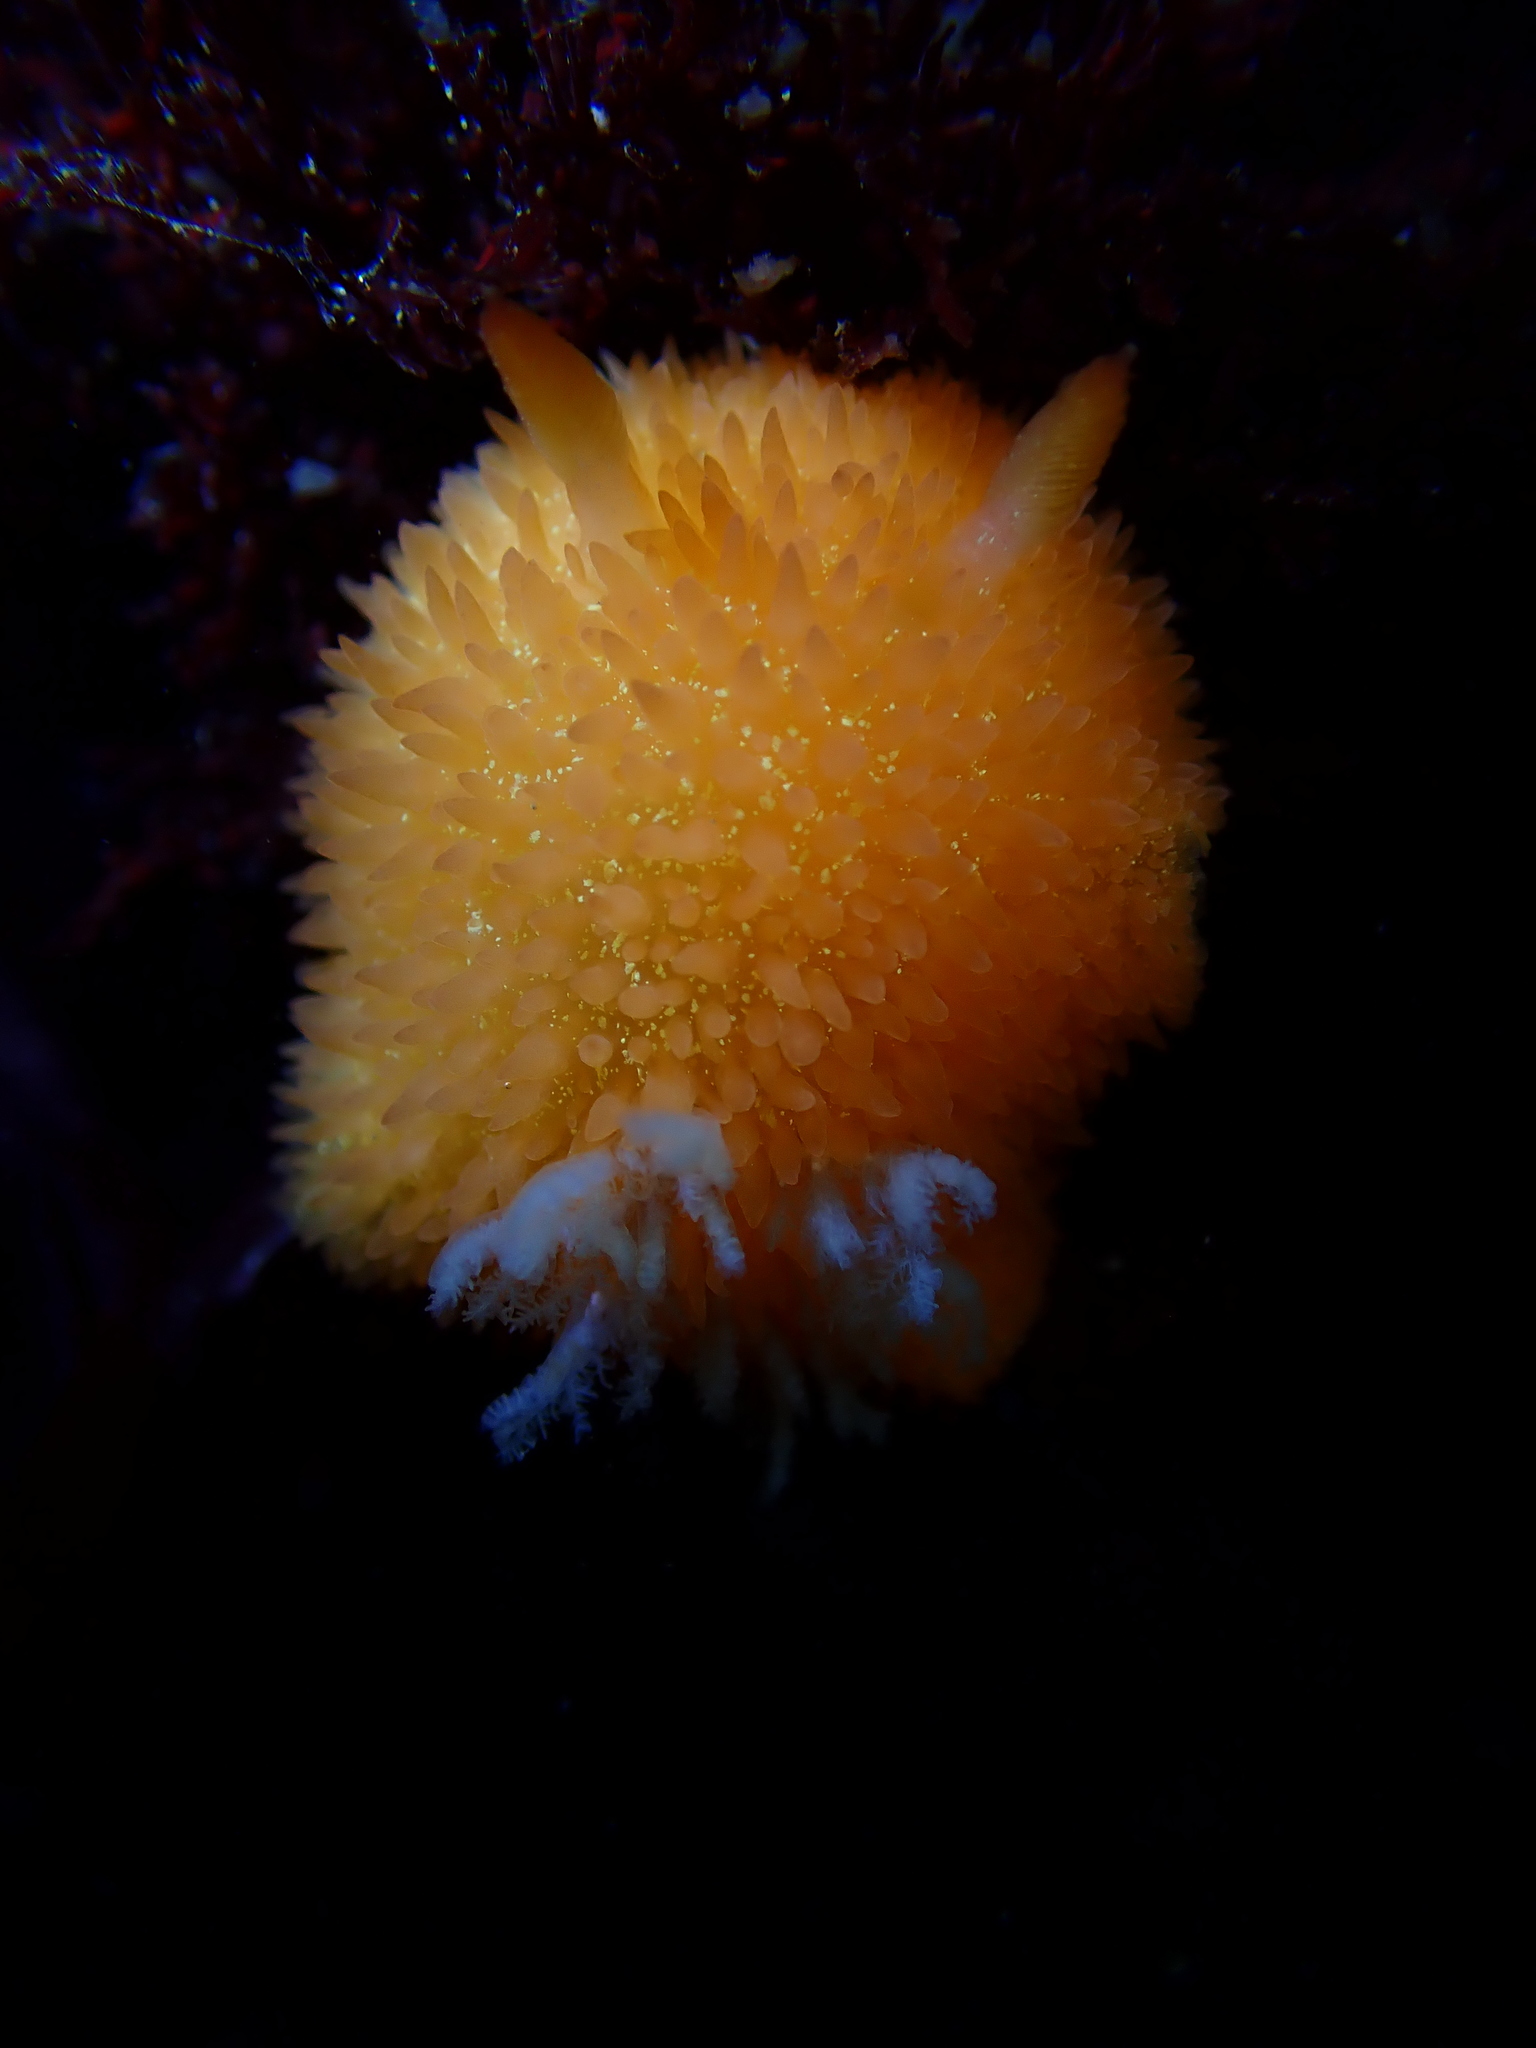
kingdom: Animalia
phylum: Mollusca
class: Gastropoda
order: Nudibranchia
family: Onchidorididae
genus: Acanthodoris
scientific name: Acanthodoris lutea
